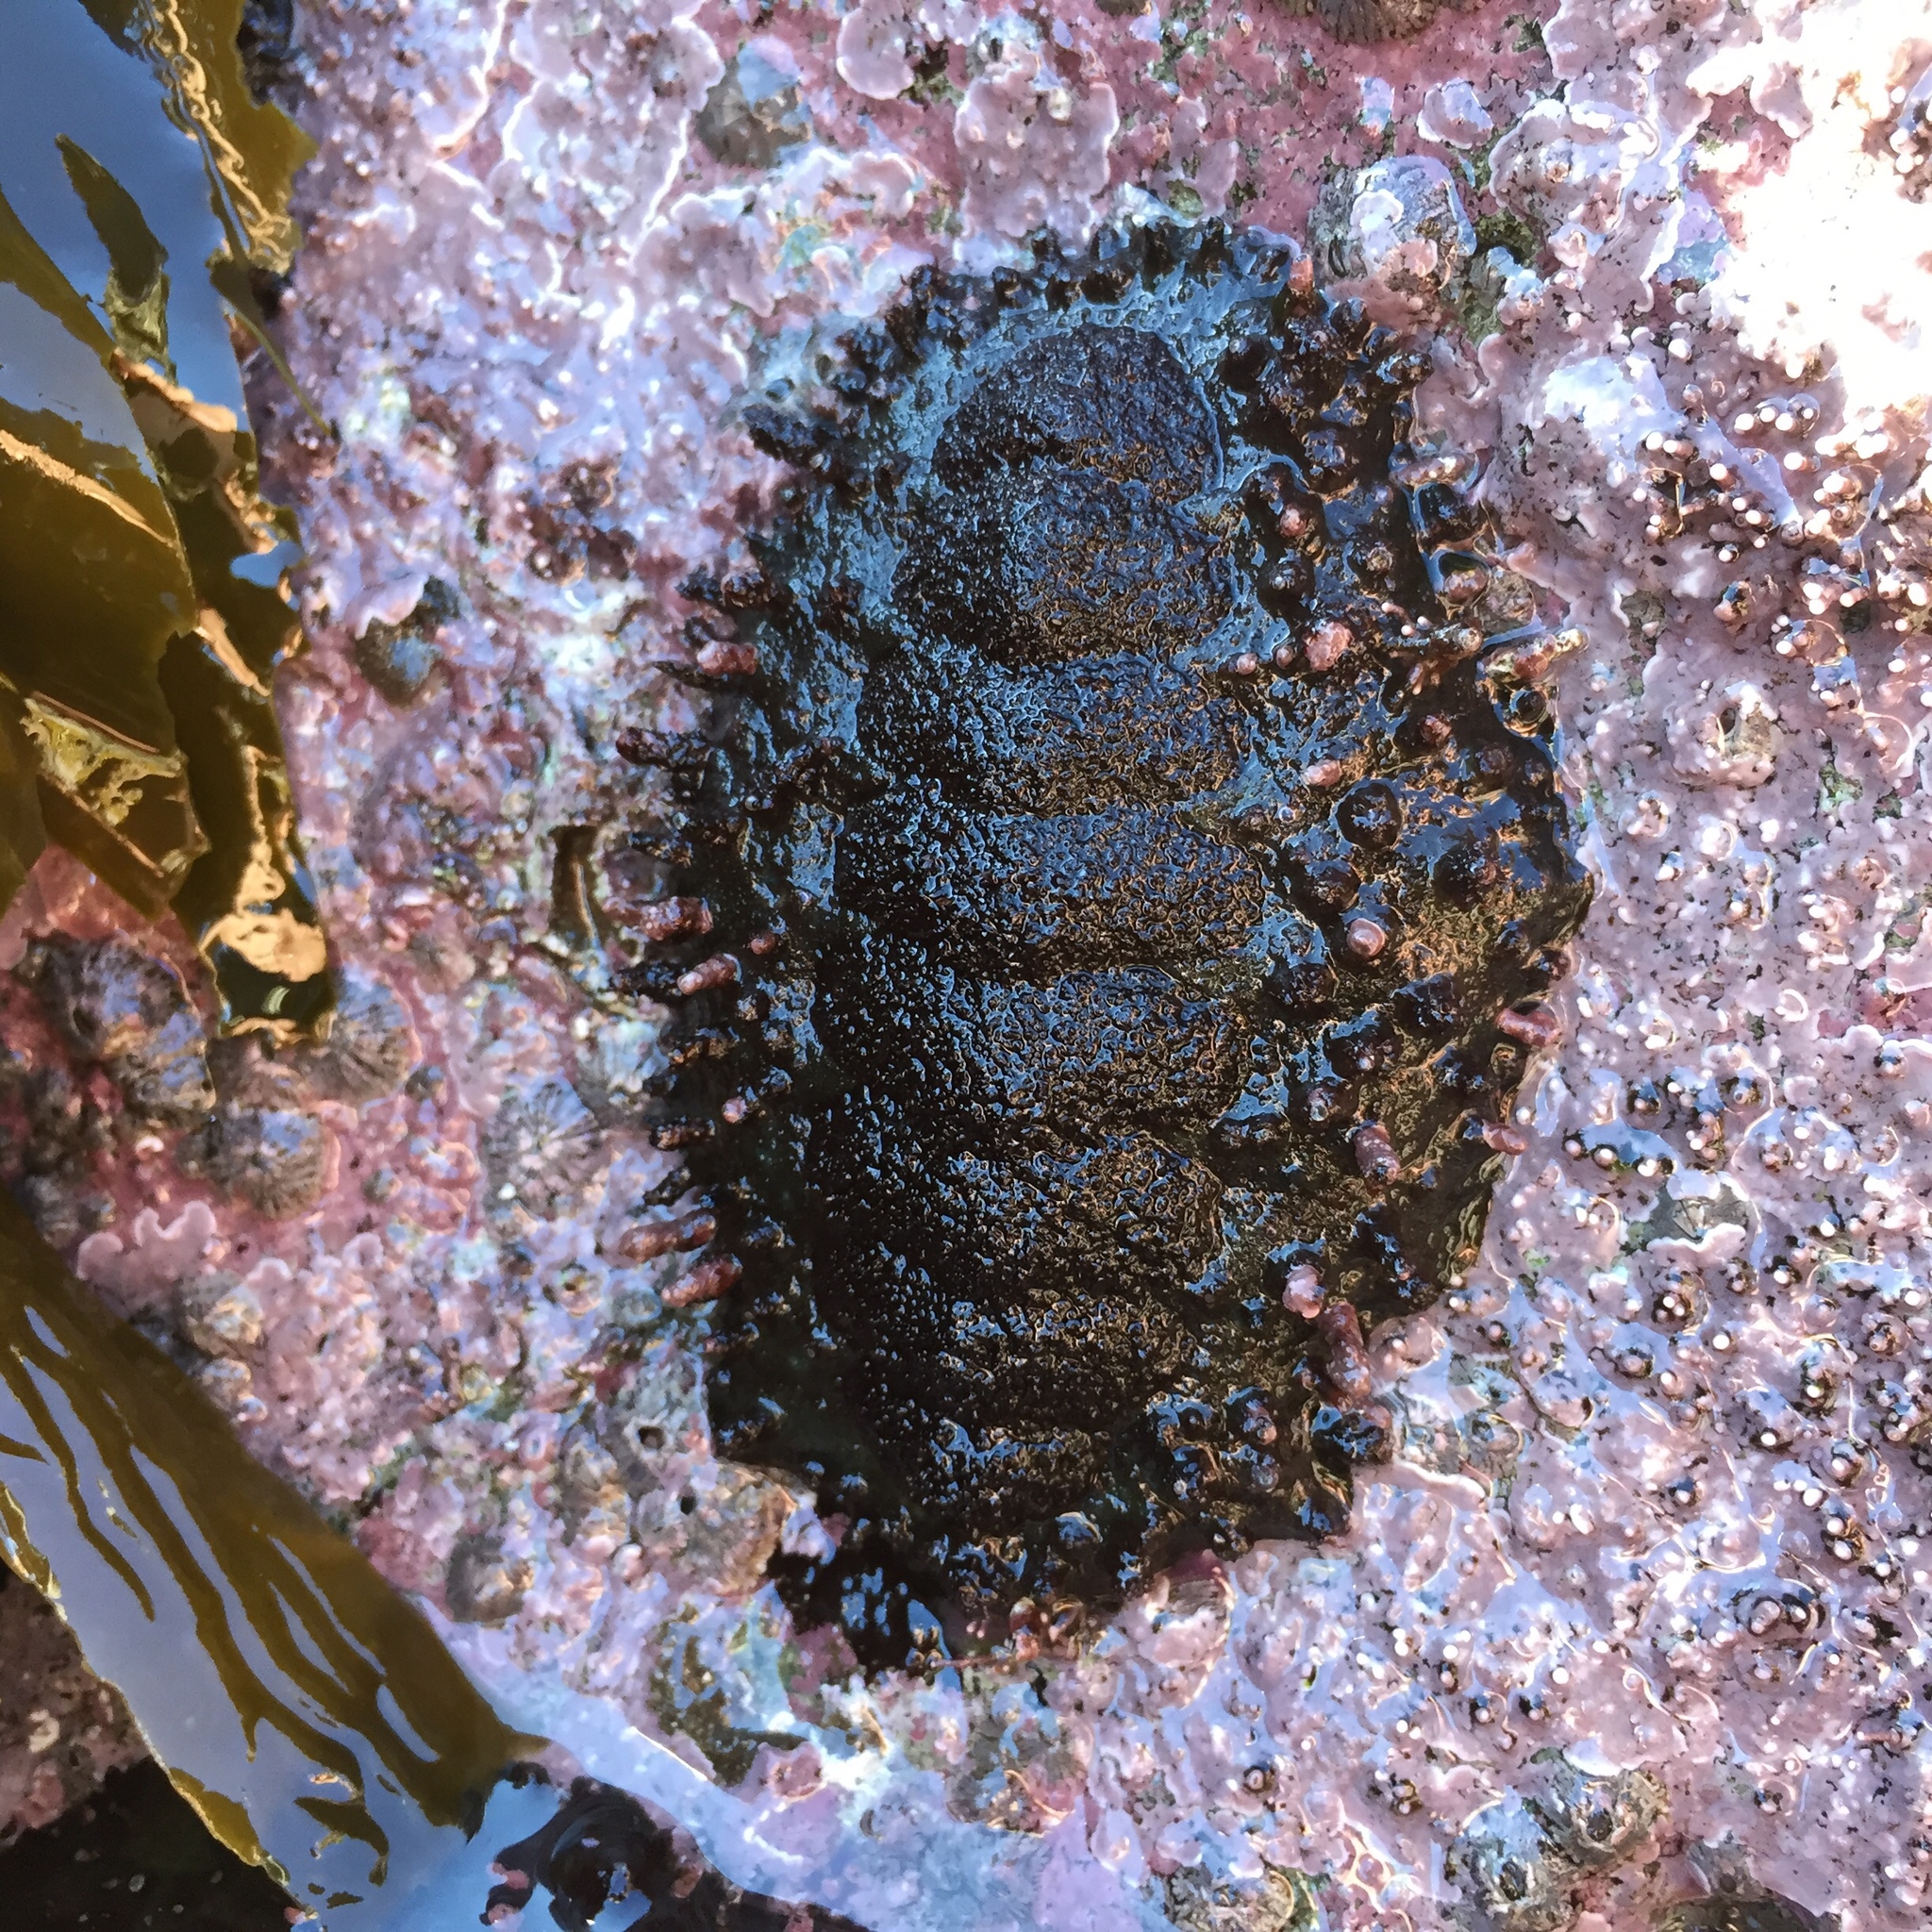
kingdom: Animalia
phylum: Mollusca
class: Polyplacophora
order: Chitonida
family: Chitonidae
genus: Enoplochiton
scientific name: Enoplochiton echinatus
